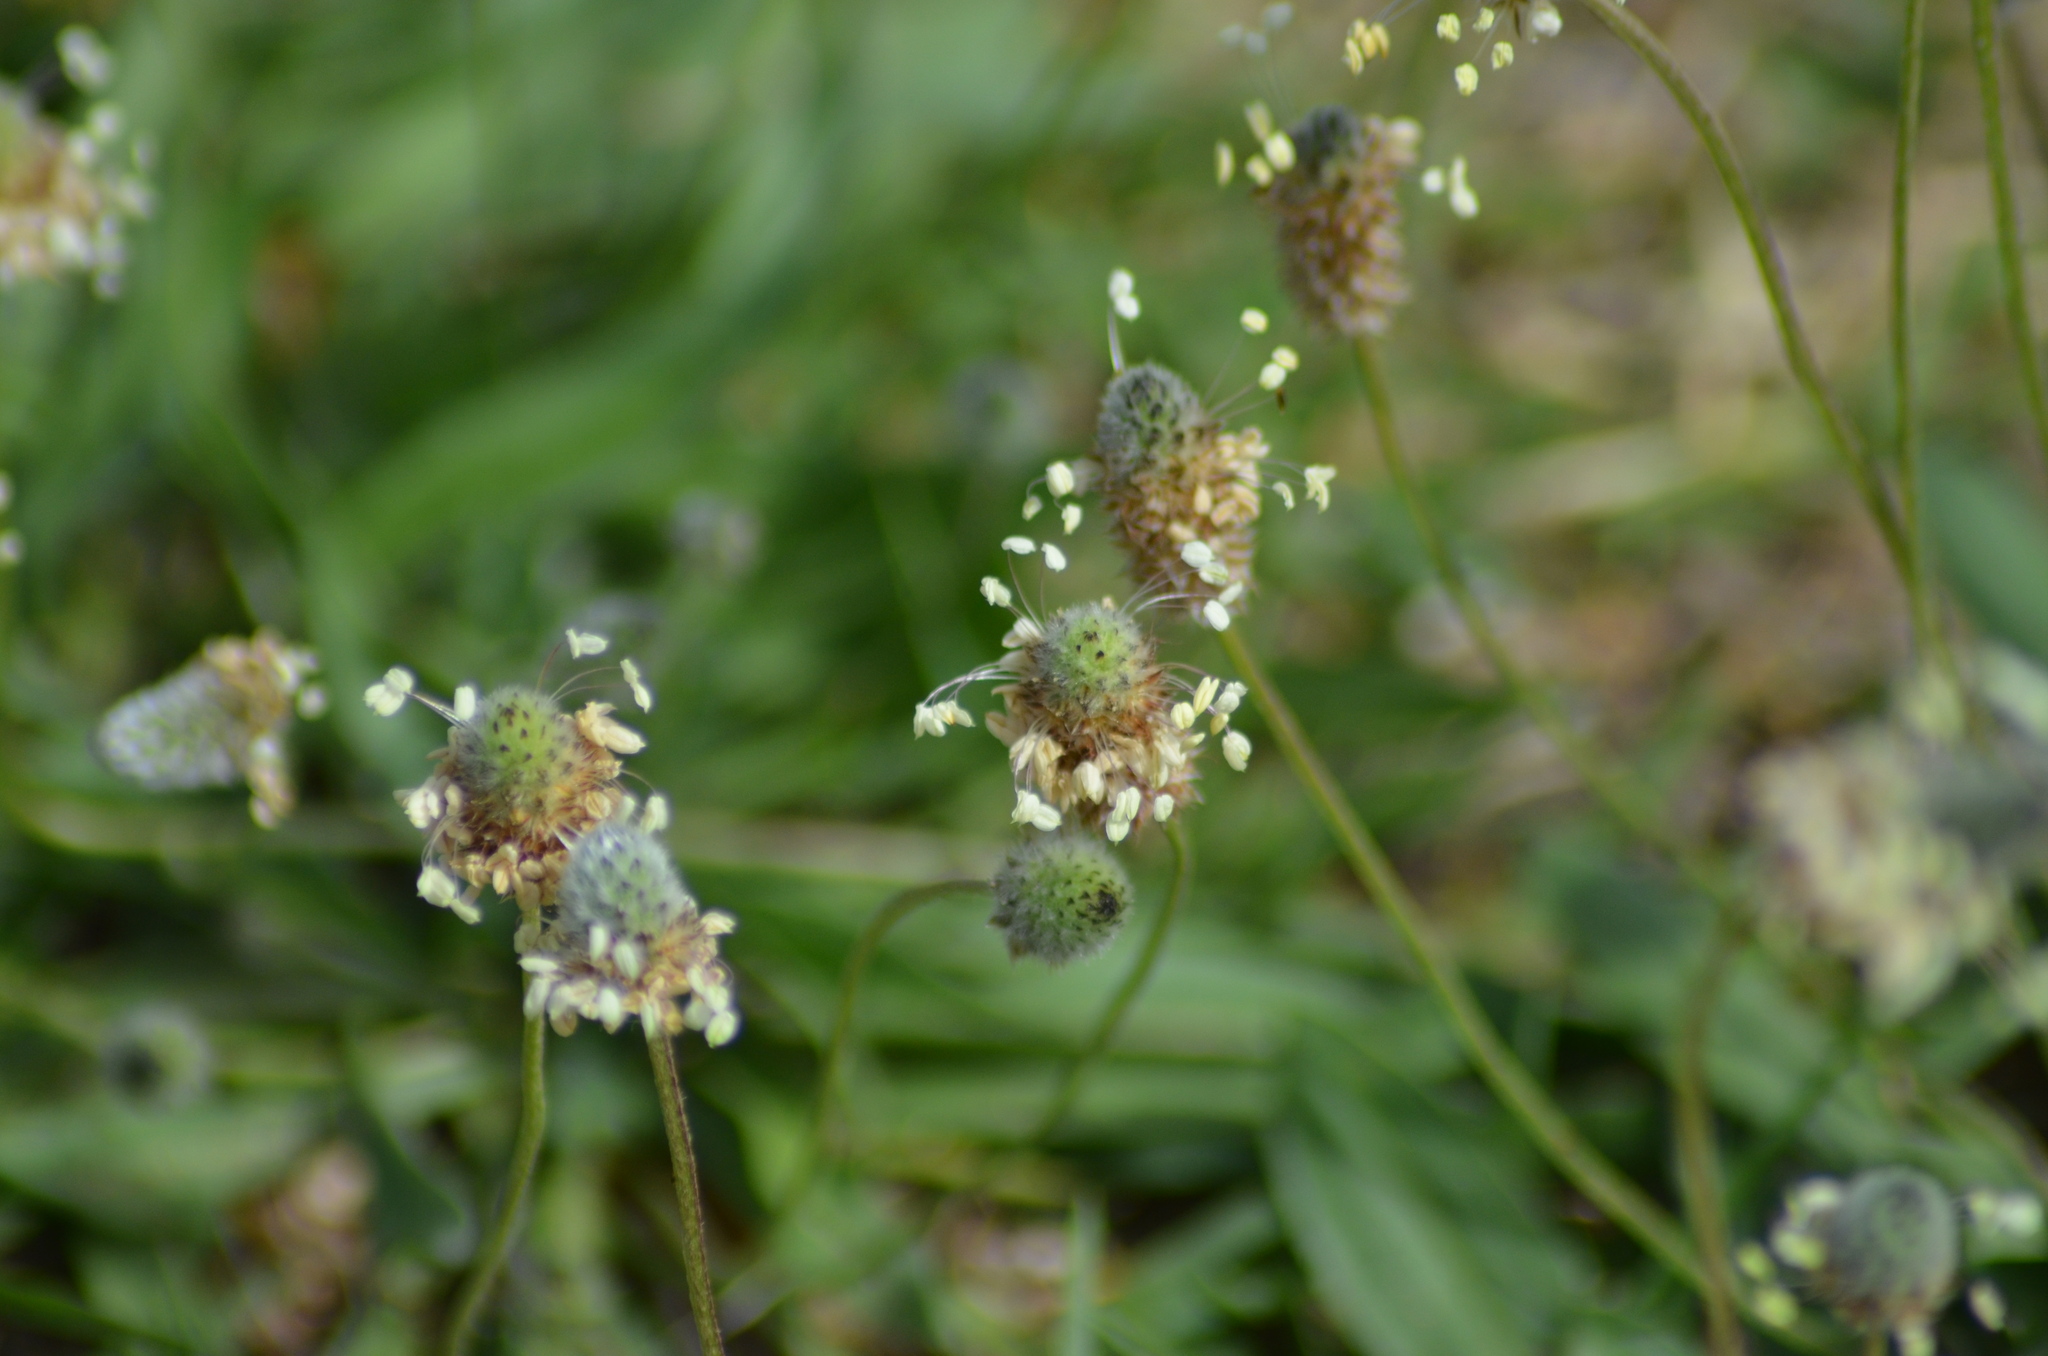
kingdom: Plantae
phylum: Tracheophyta
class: Magnoliopsida
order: Lamiales
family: Plantaginaceae
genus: Plantago
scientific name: Plantago lagopus
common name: Hare-foot plantain
